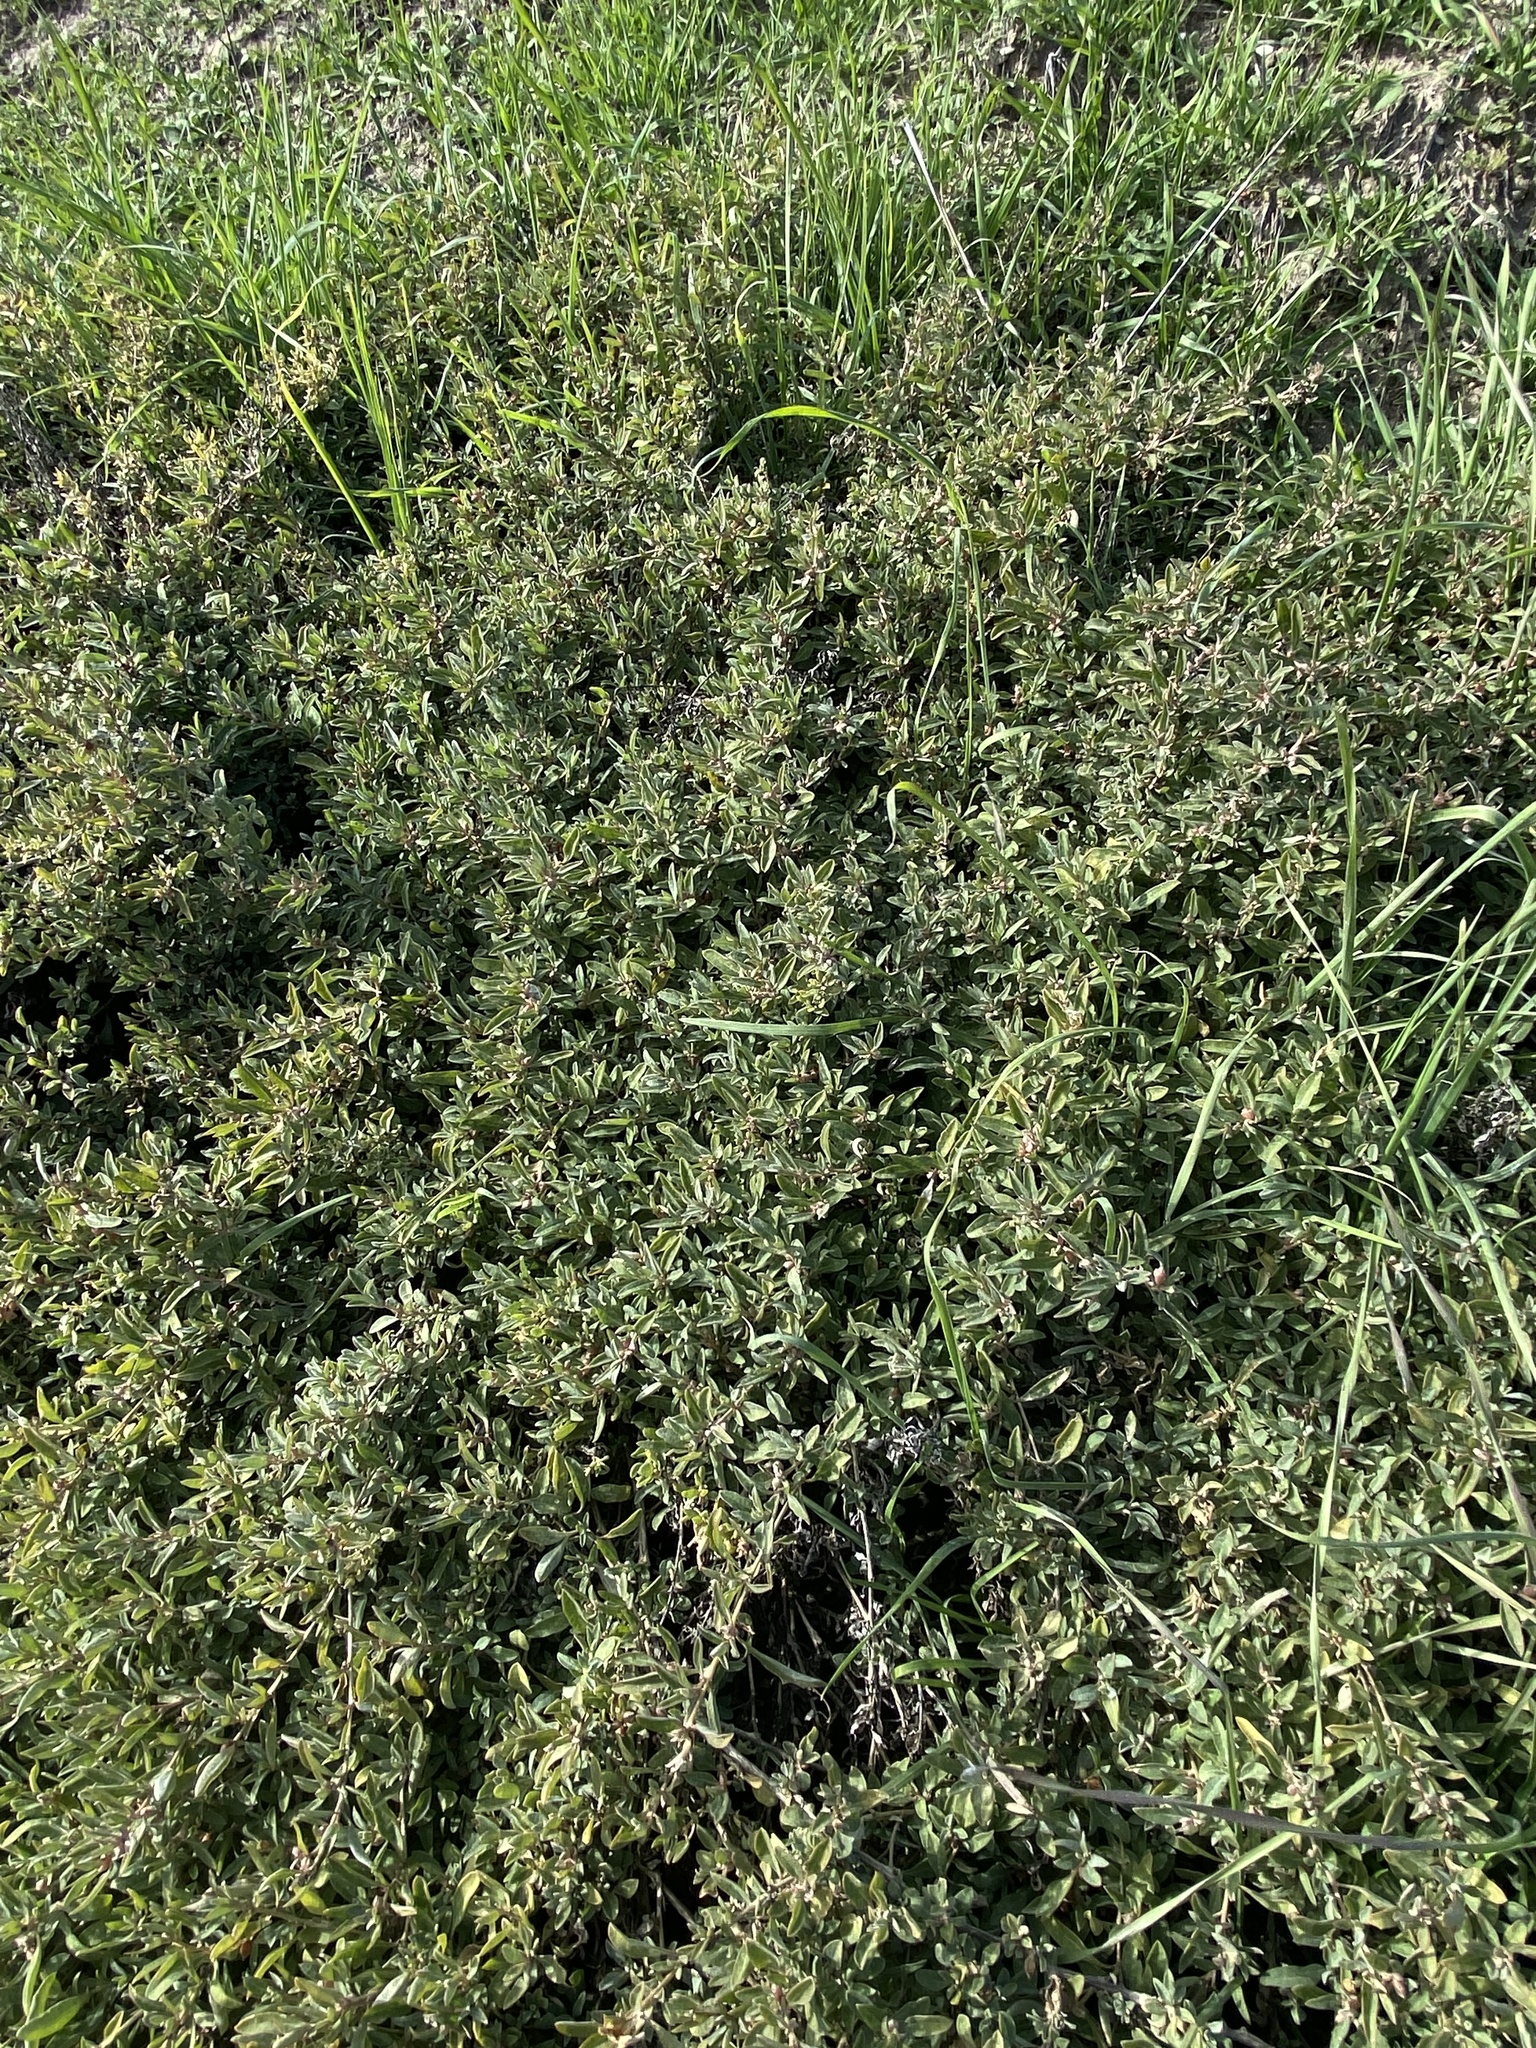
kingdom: Plantae
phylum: Tracheophyta
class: Magnoliopsida
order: Caryophyllales
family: Amaranthaceae
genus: Atriplex
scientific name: Atriplex semibaccata
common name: Australian saltbush
